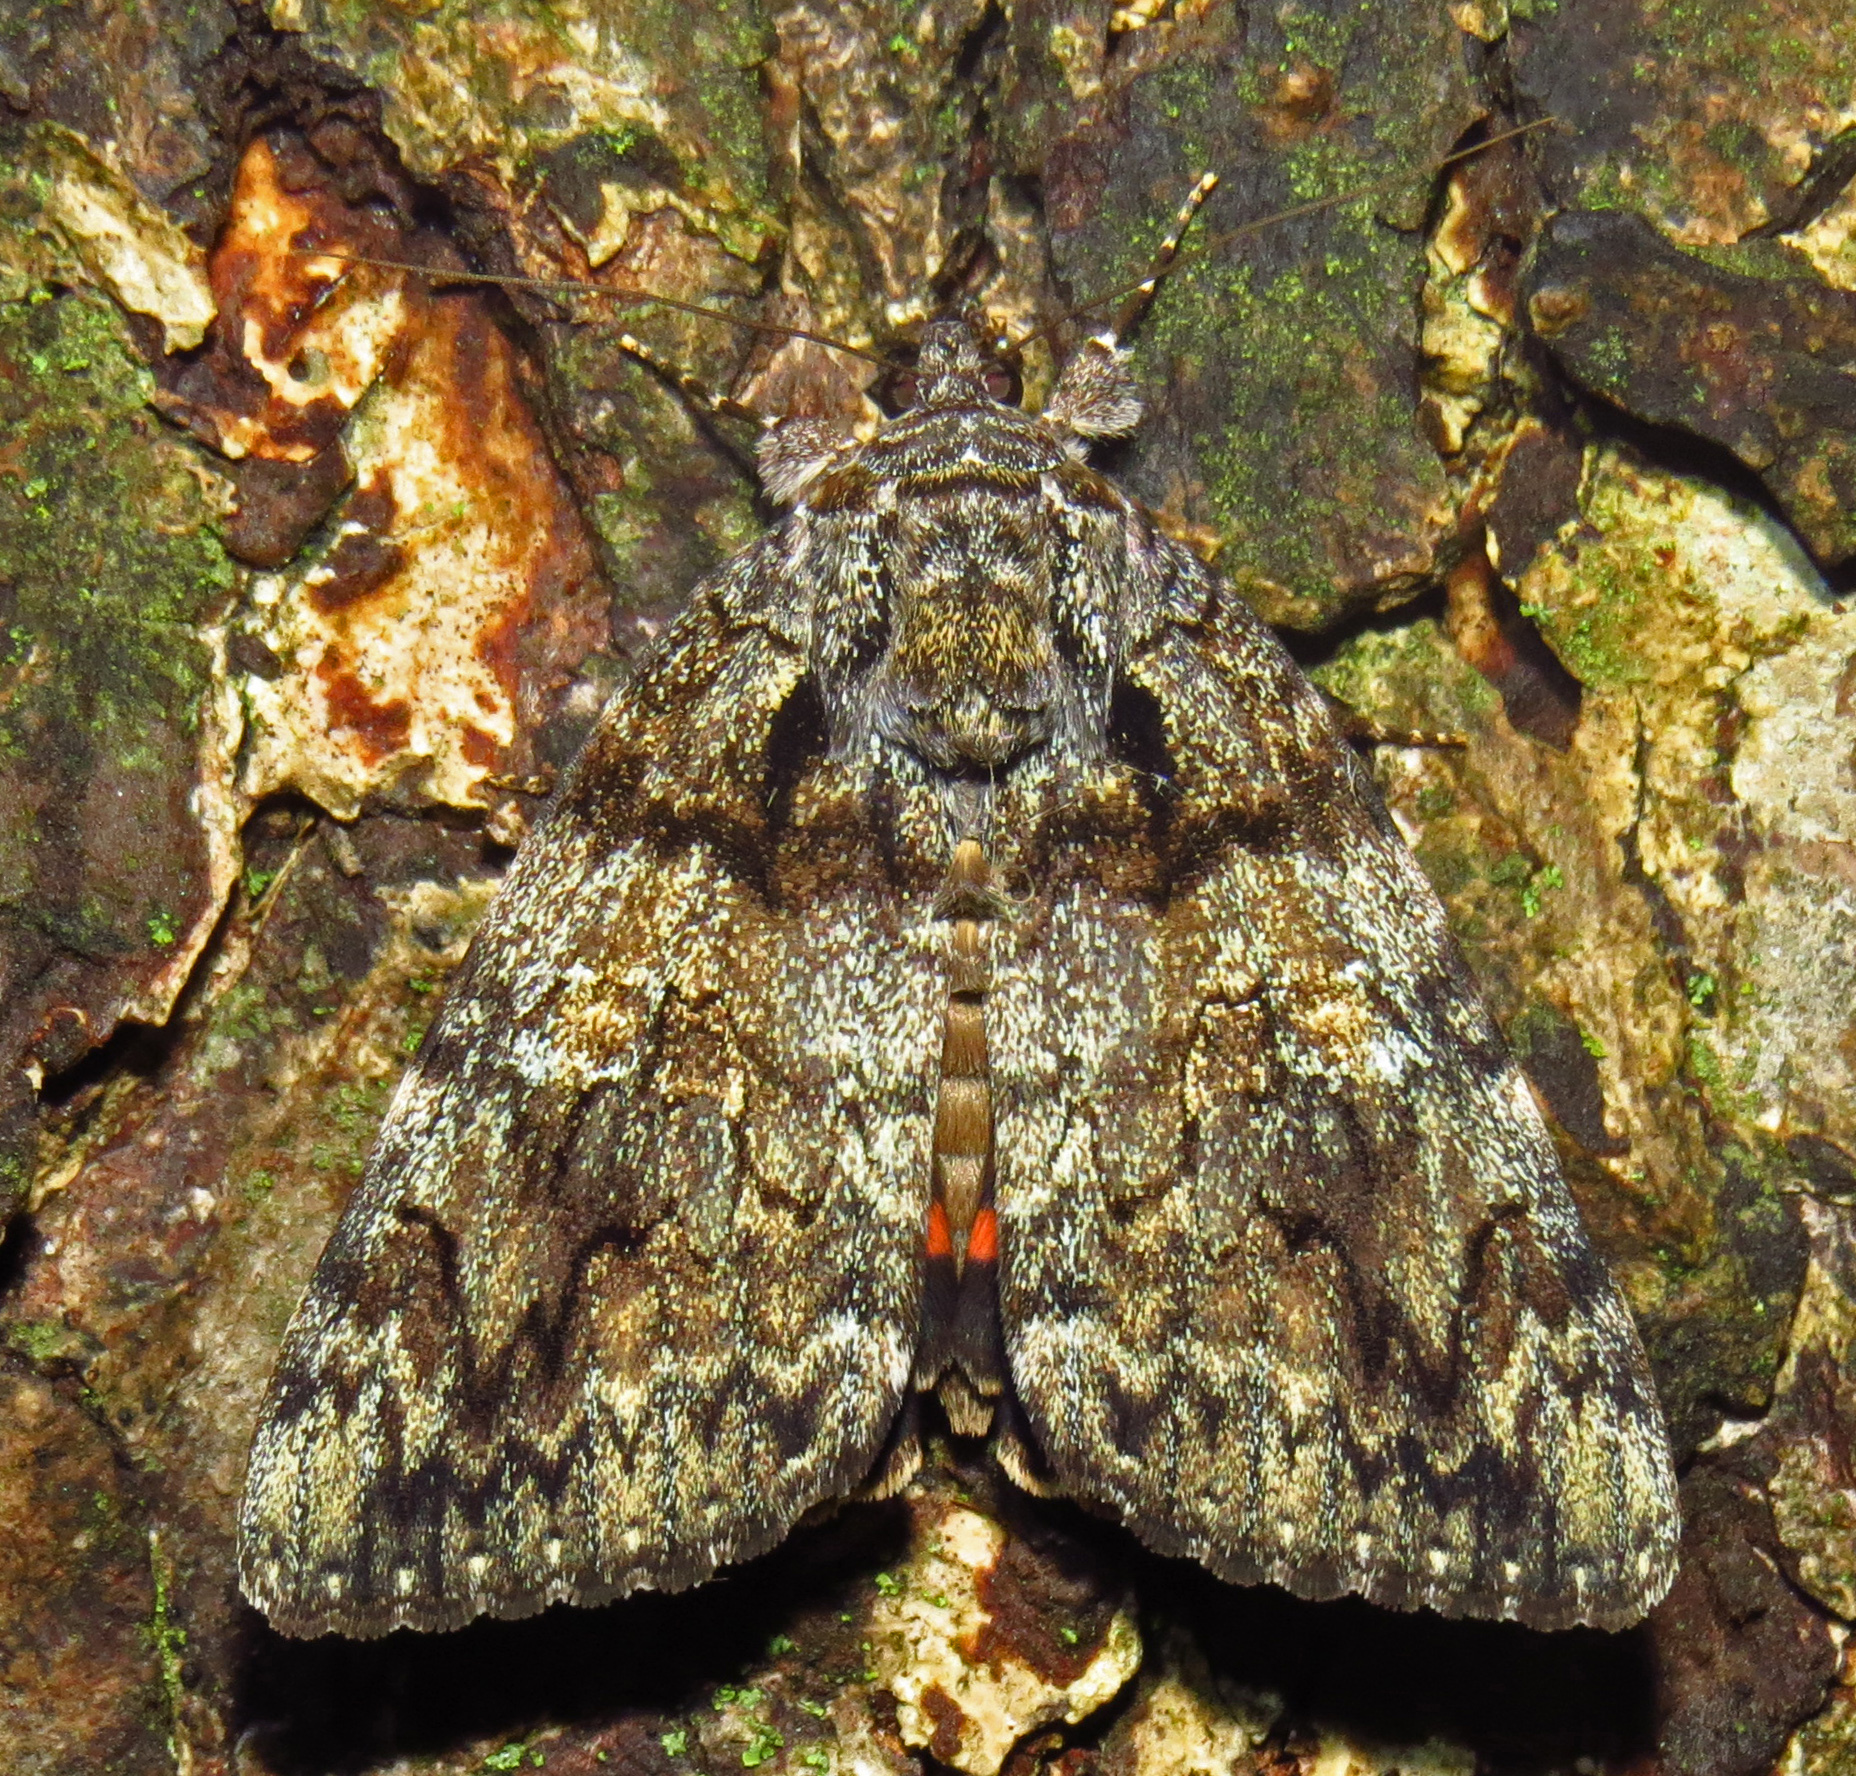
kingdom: Animalia
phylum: Arthropoda
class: Insecta
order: Lepidoptera
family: Erebidae
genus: Catocala
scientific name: Catocala ilia
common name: Ilia underwing
